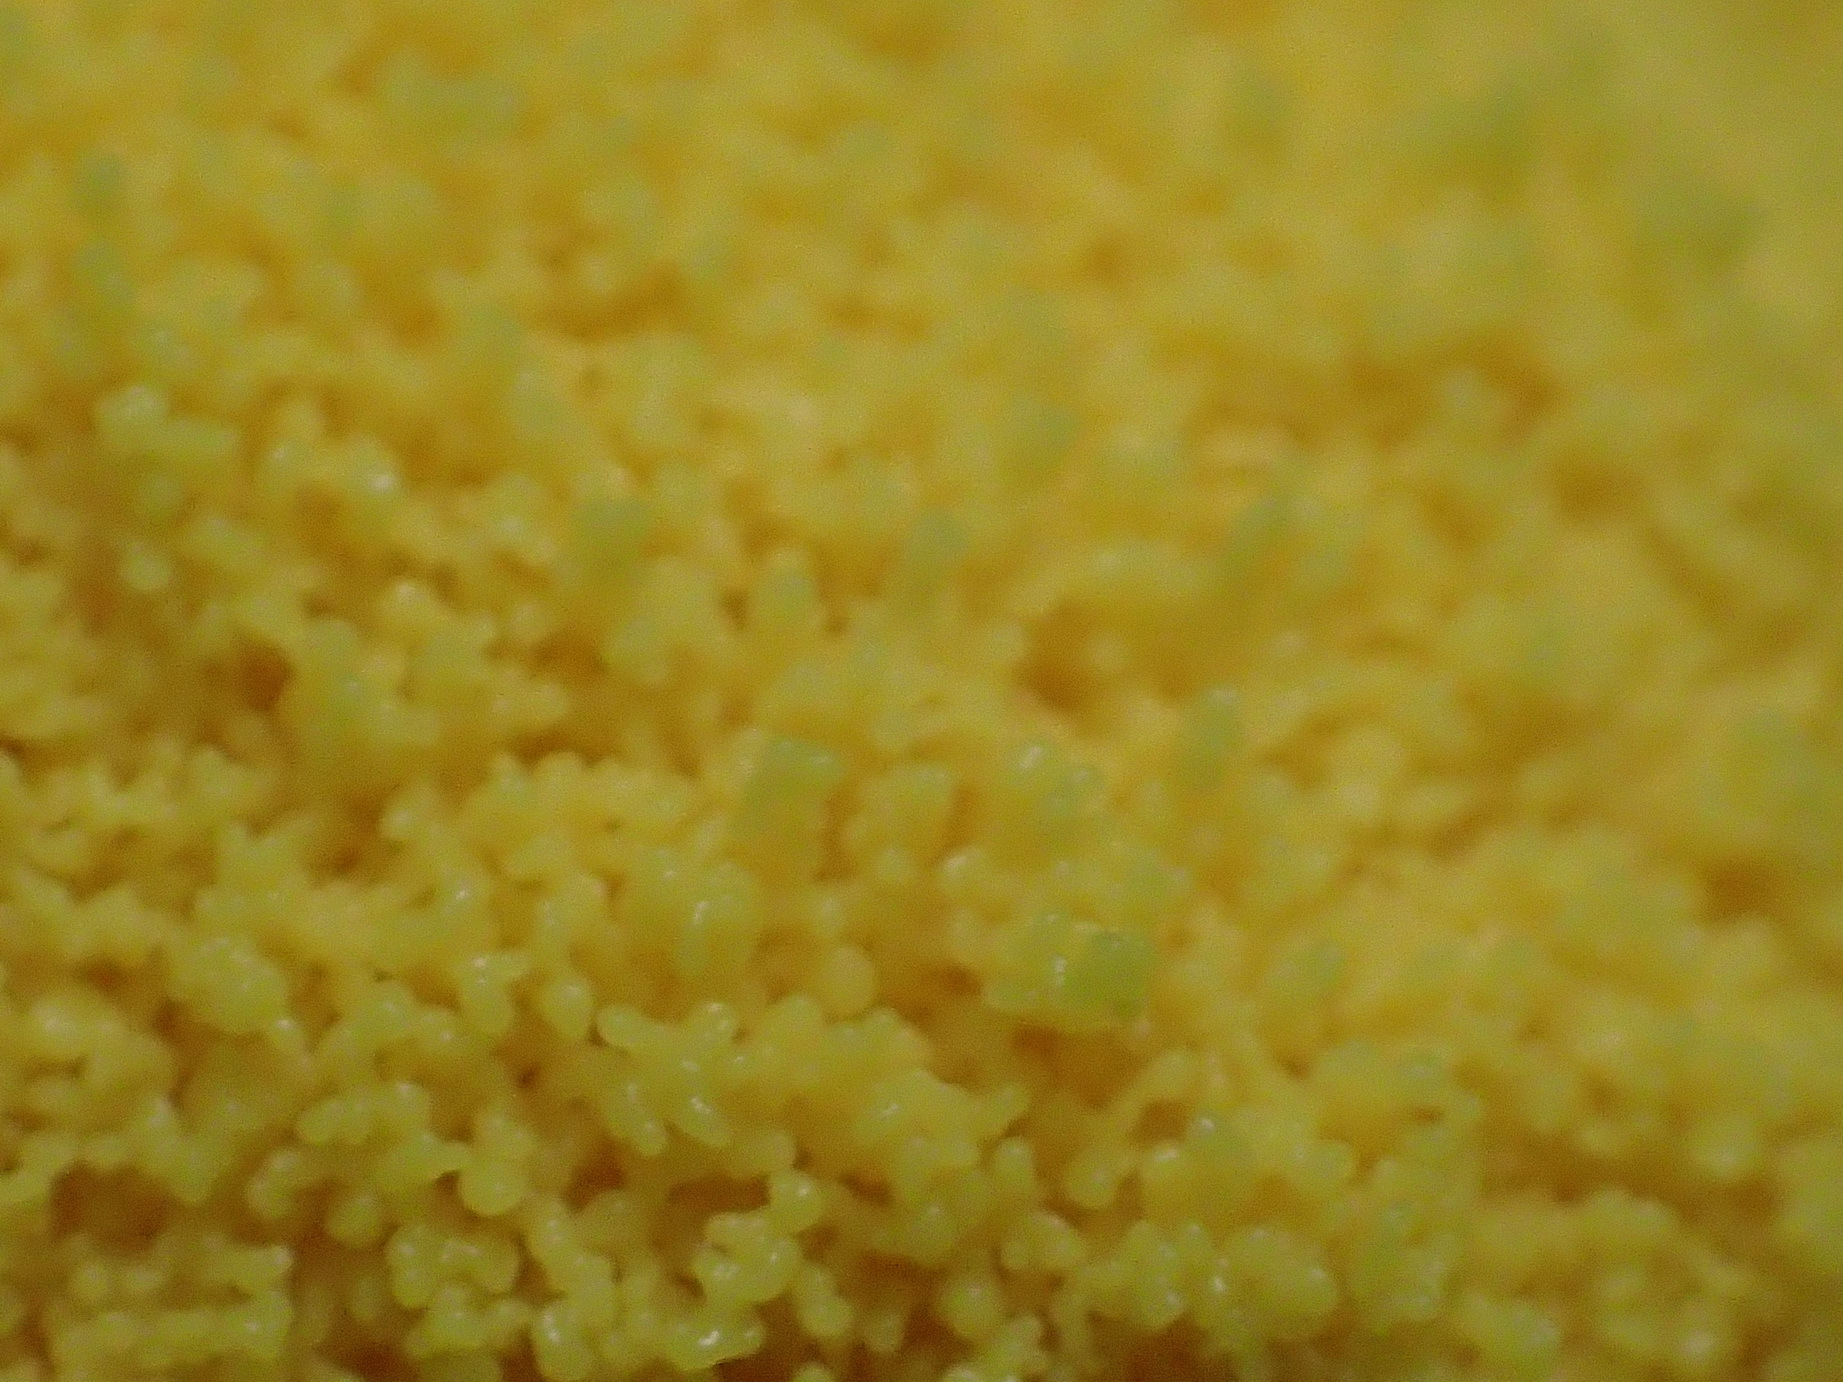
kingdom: Protozoa
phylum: Mycetozoa
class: Myxomycetes
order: Physarales
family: Physaraceae
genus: Fuligo
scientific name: Fuligo septica
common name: Dog vomit slime mold
